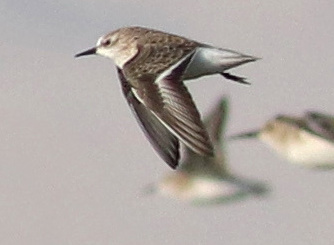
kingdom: Animalia
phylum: Chordata
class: Aves
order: Charadriiformes
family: Scolopacidae
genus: Calidris
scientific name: Calidris minuta
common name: Little stint
